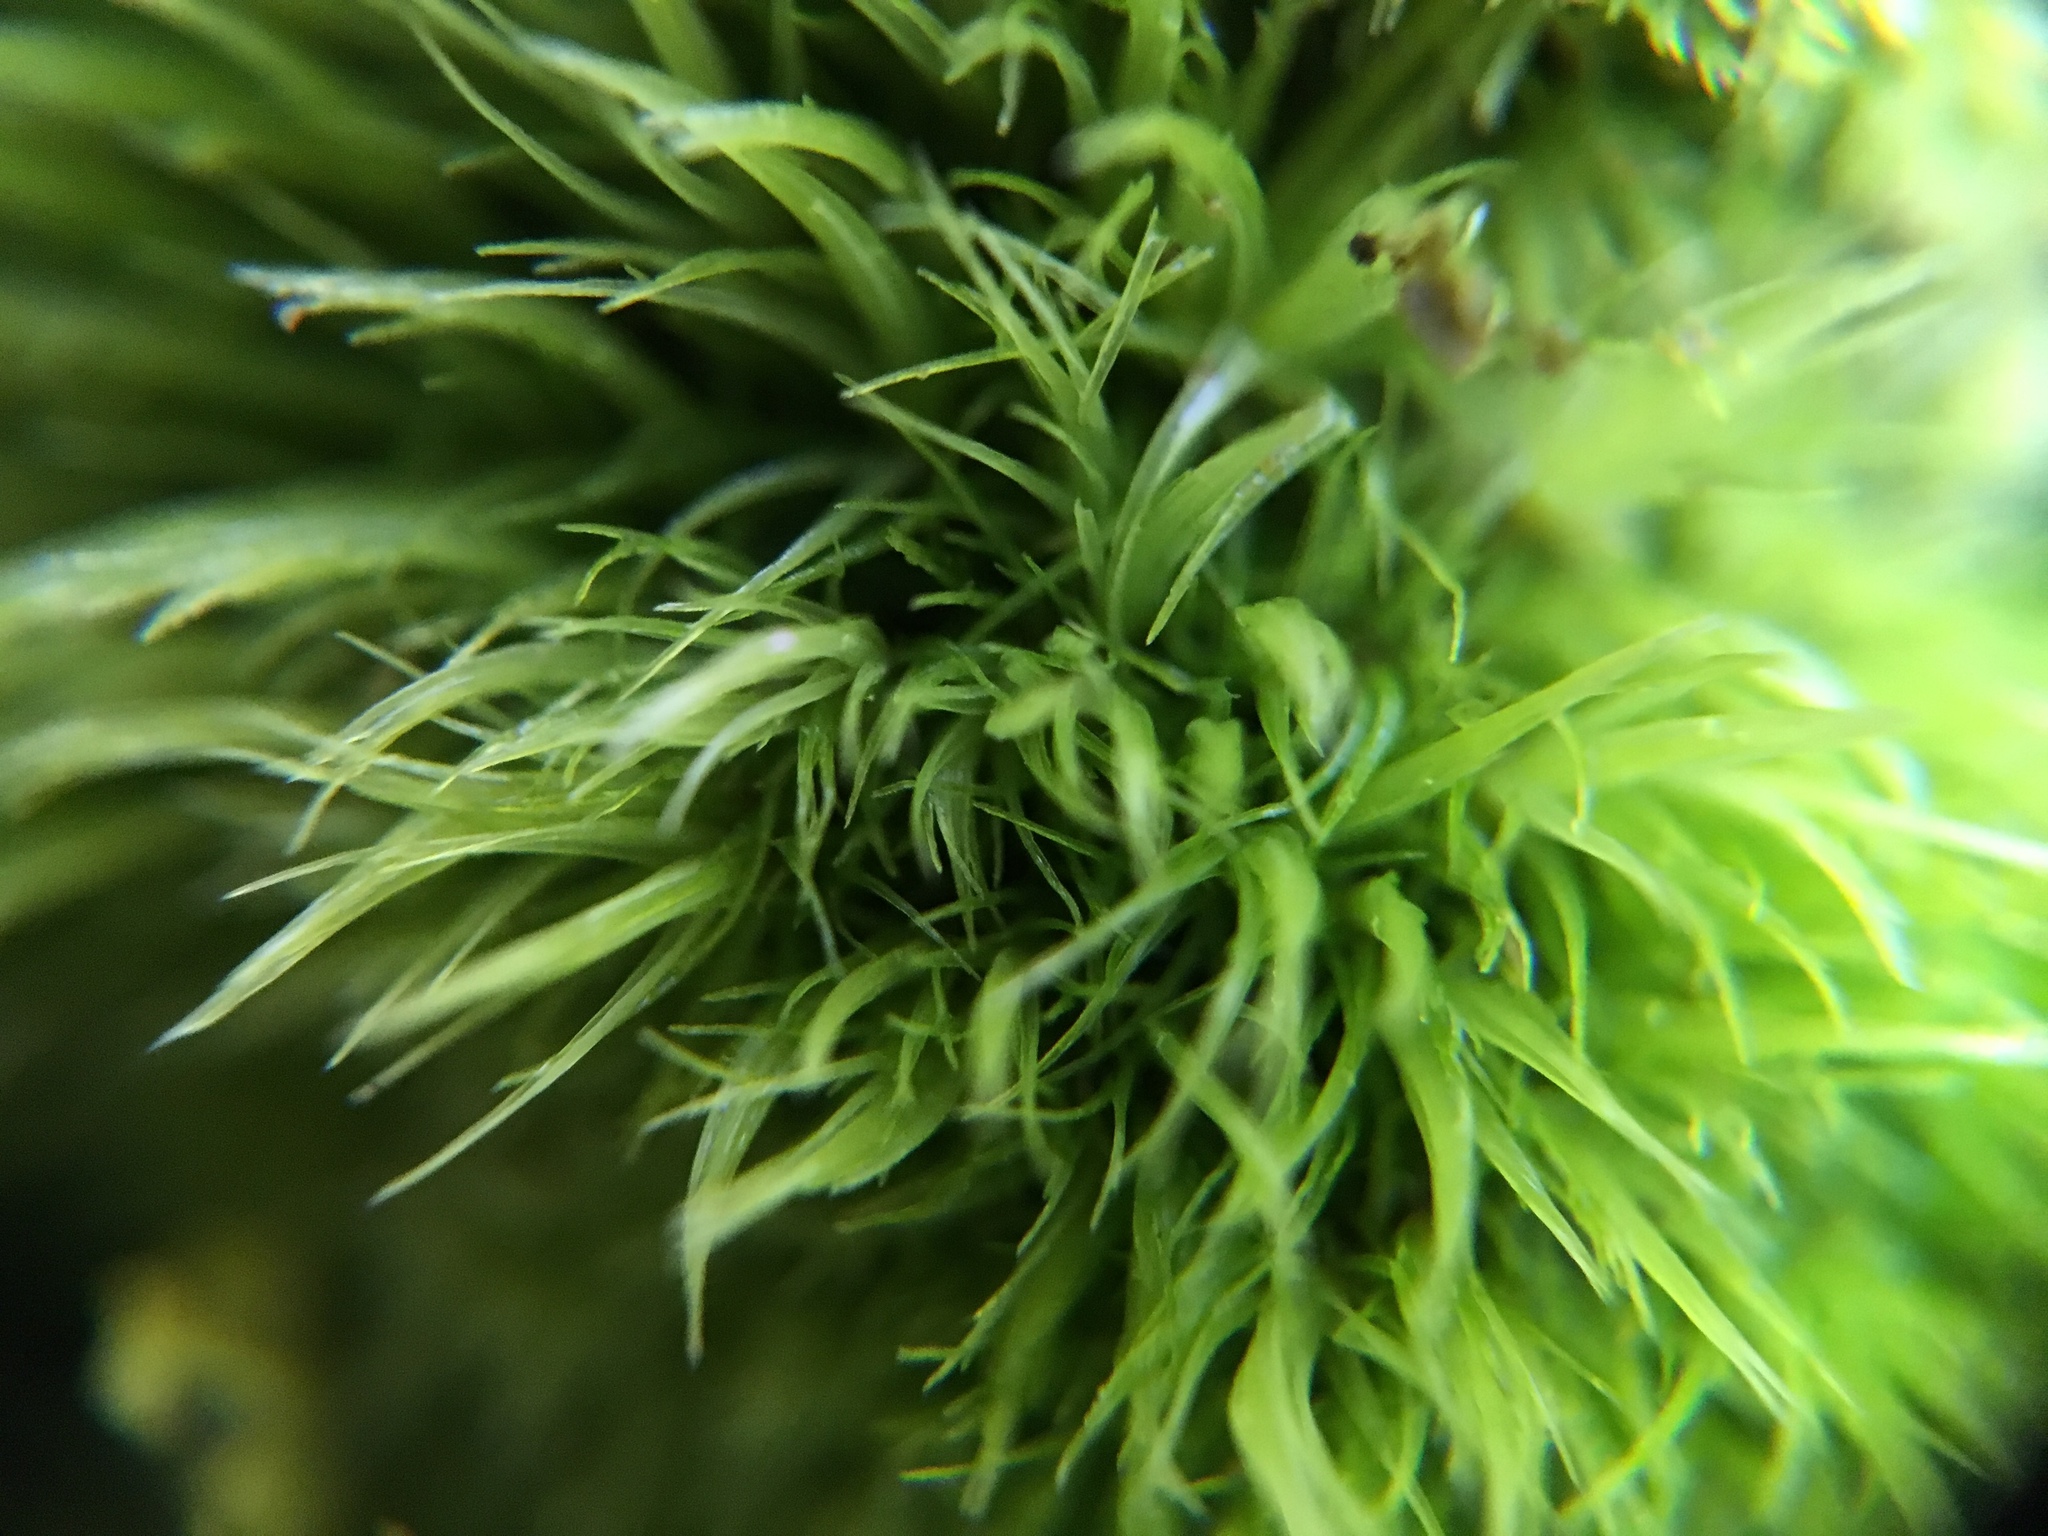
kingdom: Plantae
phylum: Bryophyta
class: Bryopsida
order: Dicranales
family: Dicranaceae
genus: Dicranum
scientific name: Dicranum scoparium
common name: Broom fork-moss
